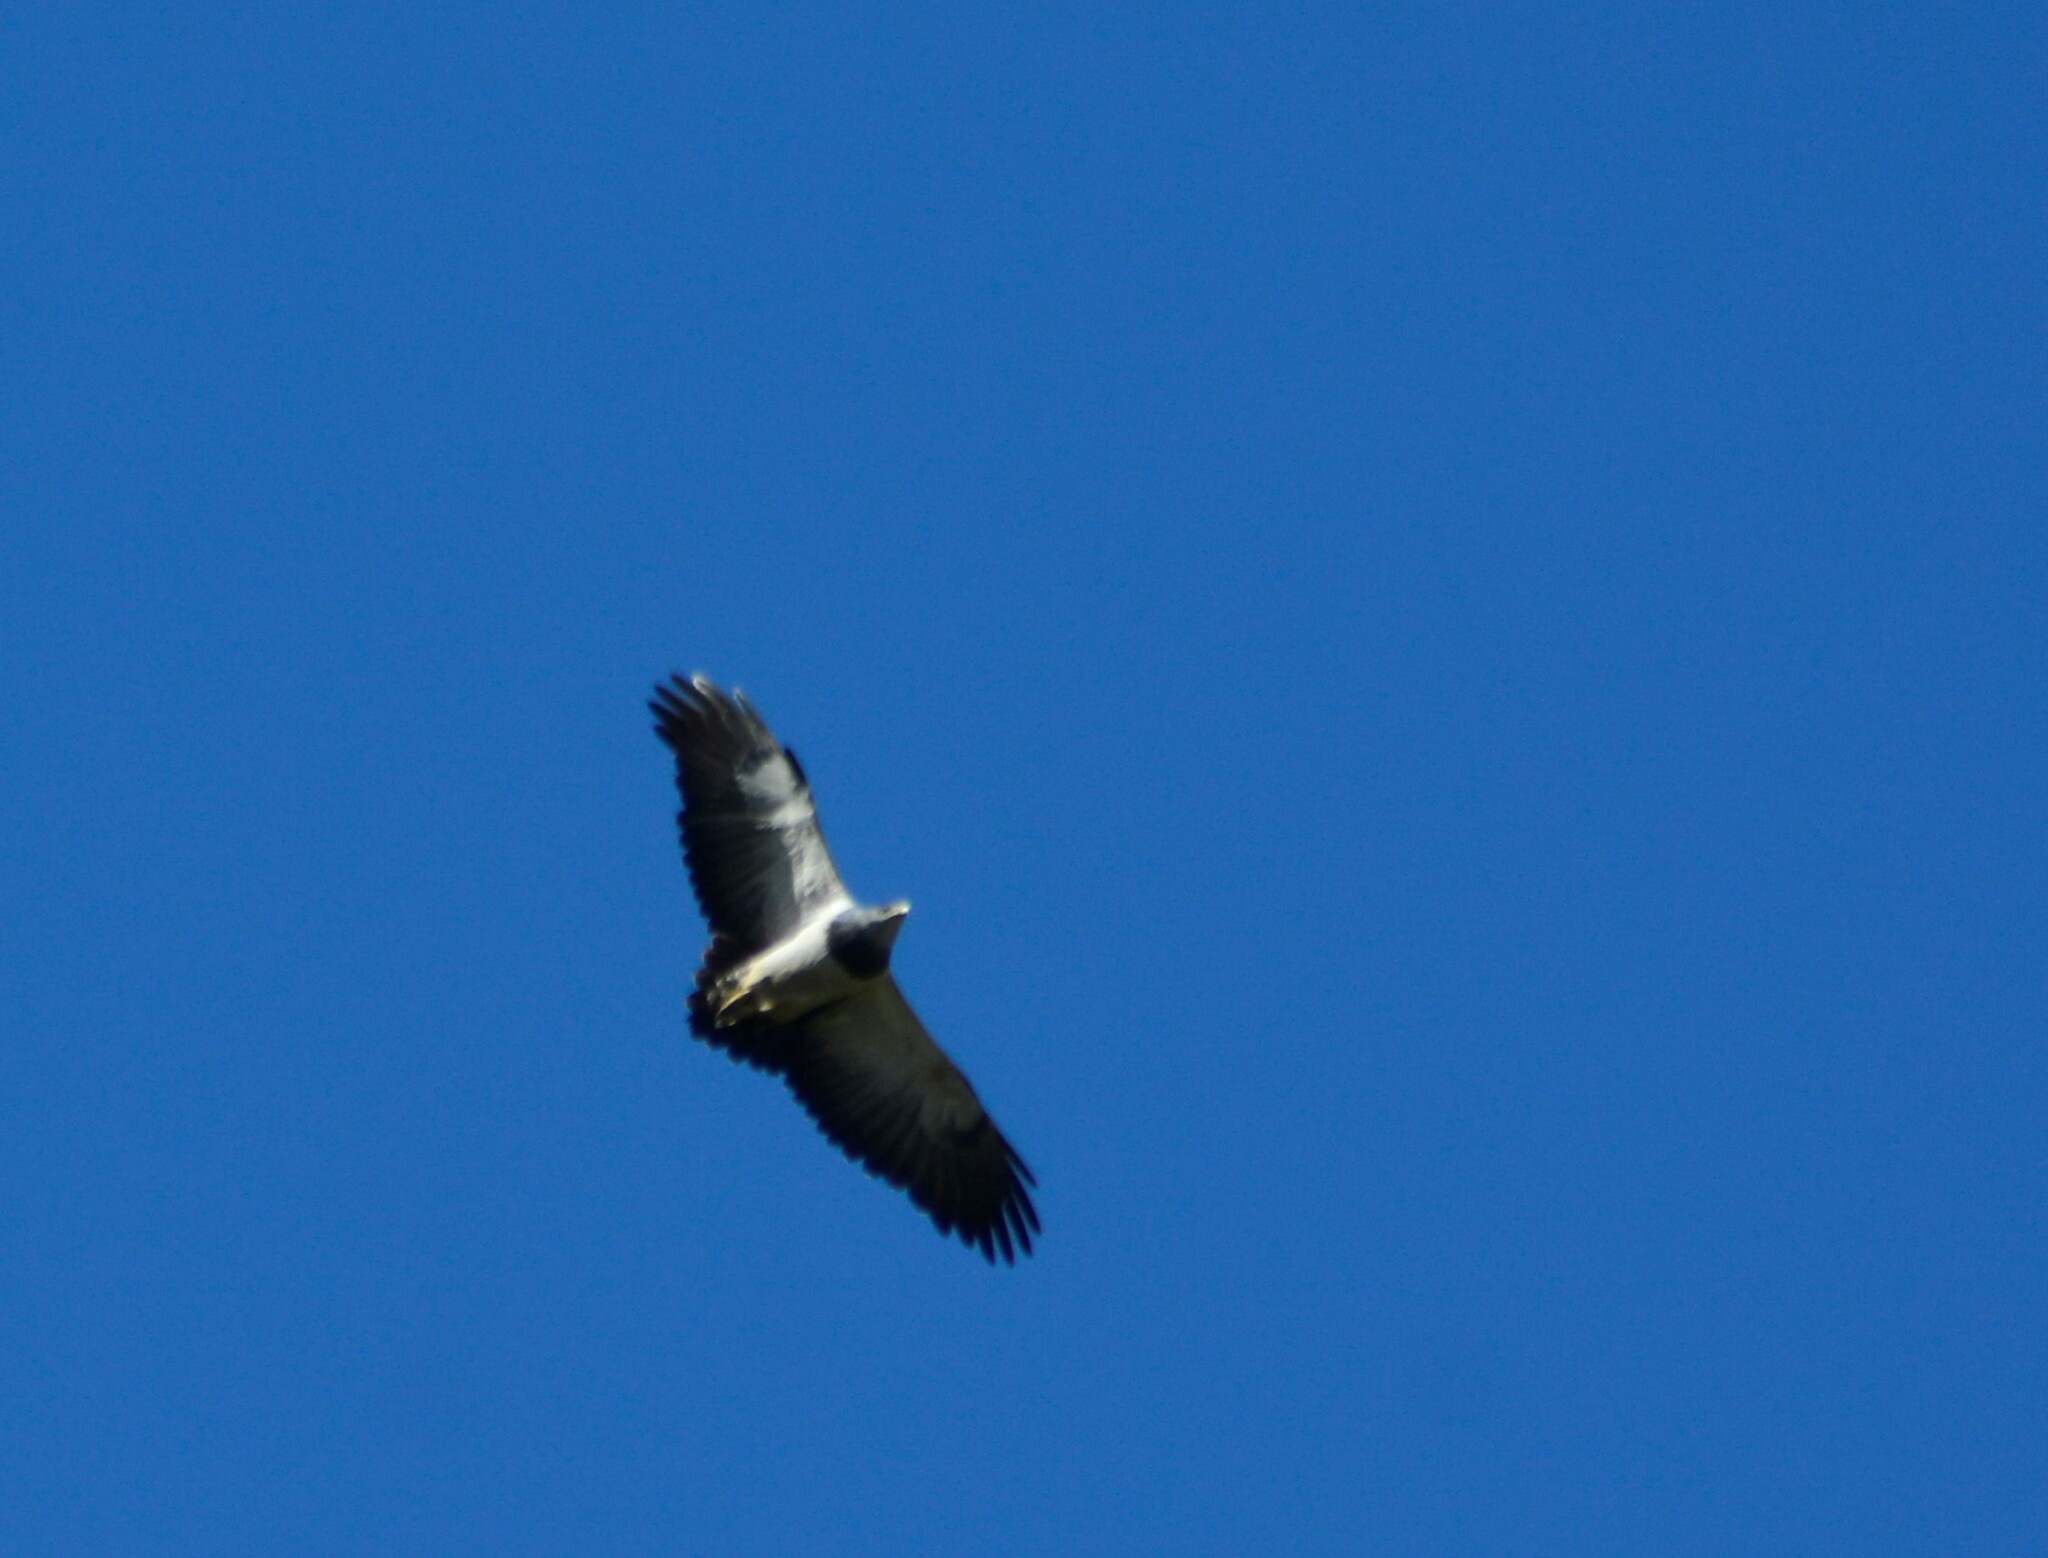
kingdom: Animalia
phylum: Chordata
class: Aves
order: Accipitriformes
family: Accipitridae
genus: Geranoaetus
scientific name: Geranoaetus melanoleucus
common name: Black-chested buzzard-eagle
